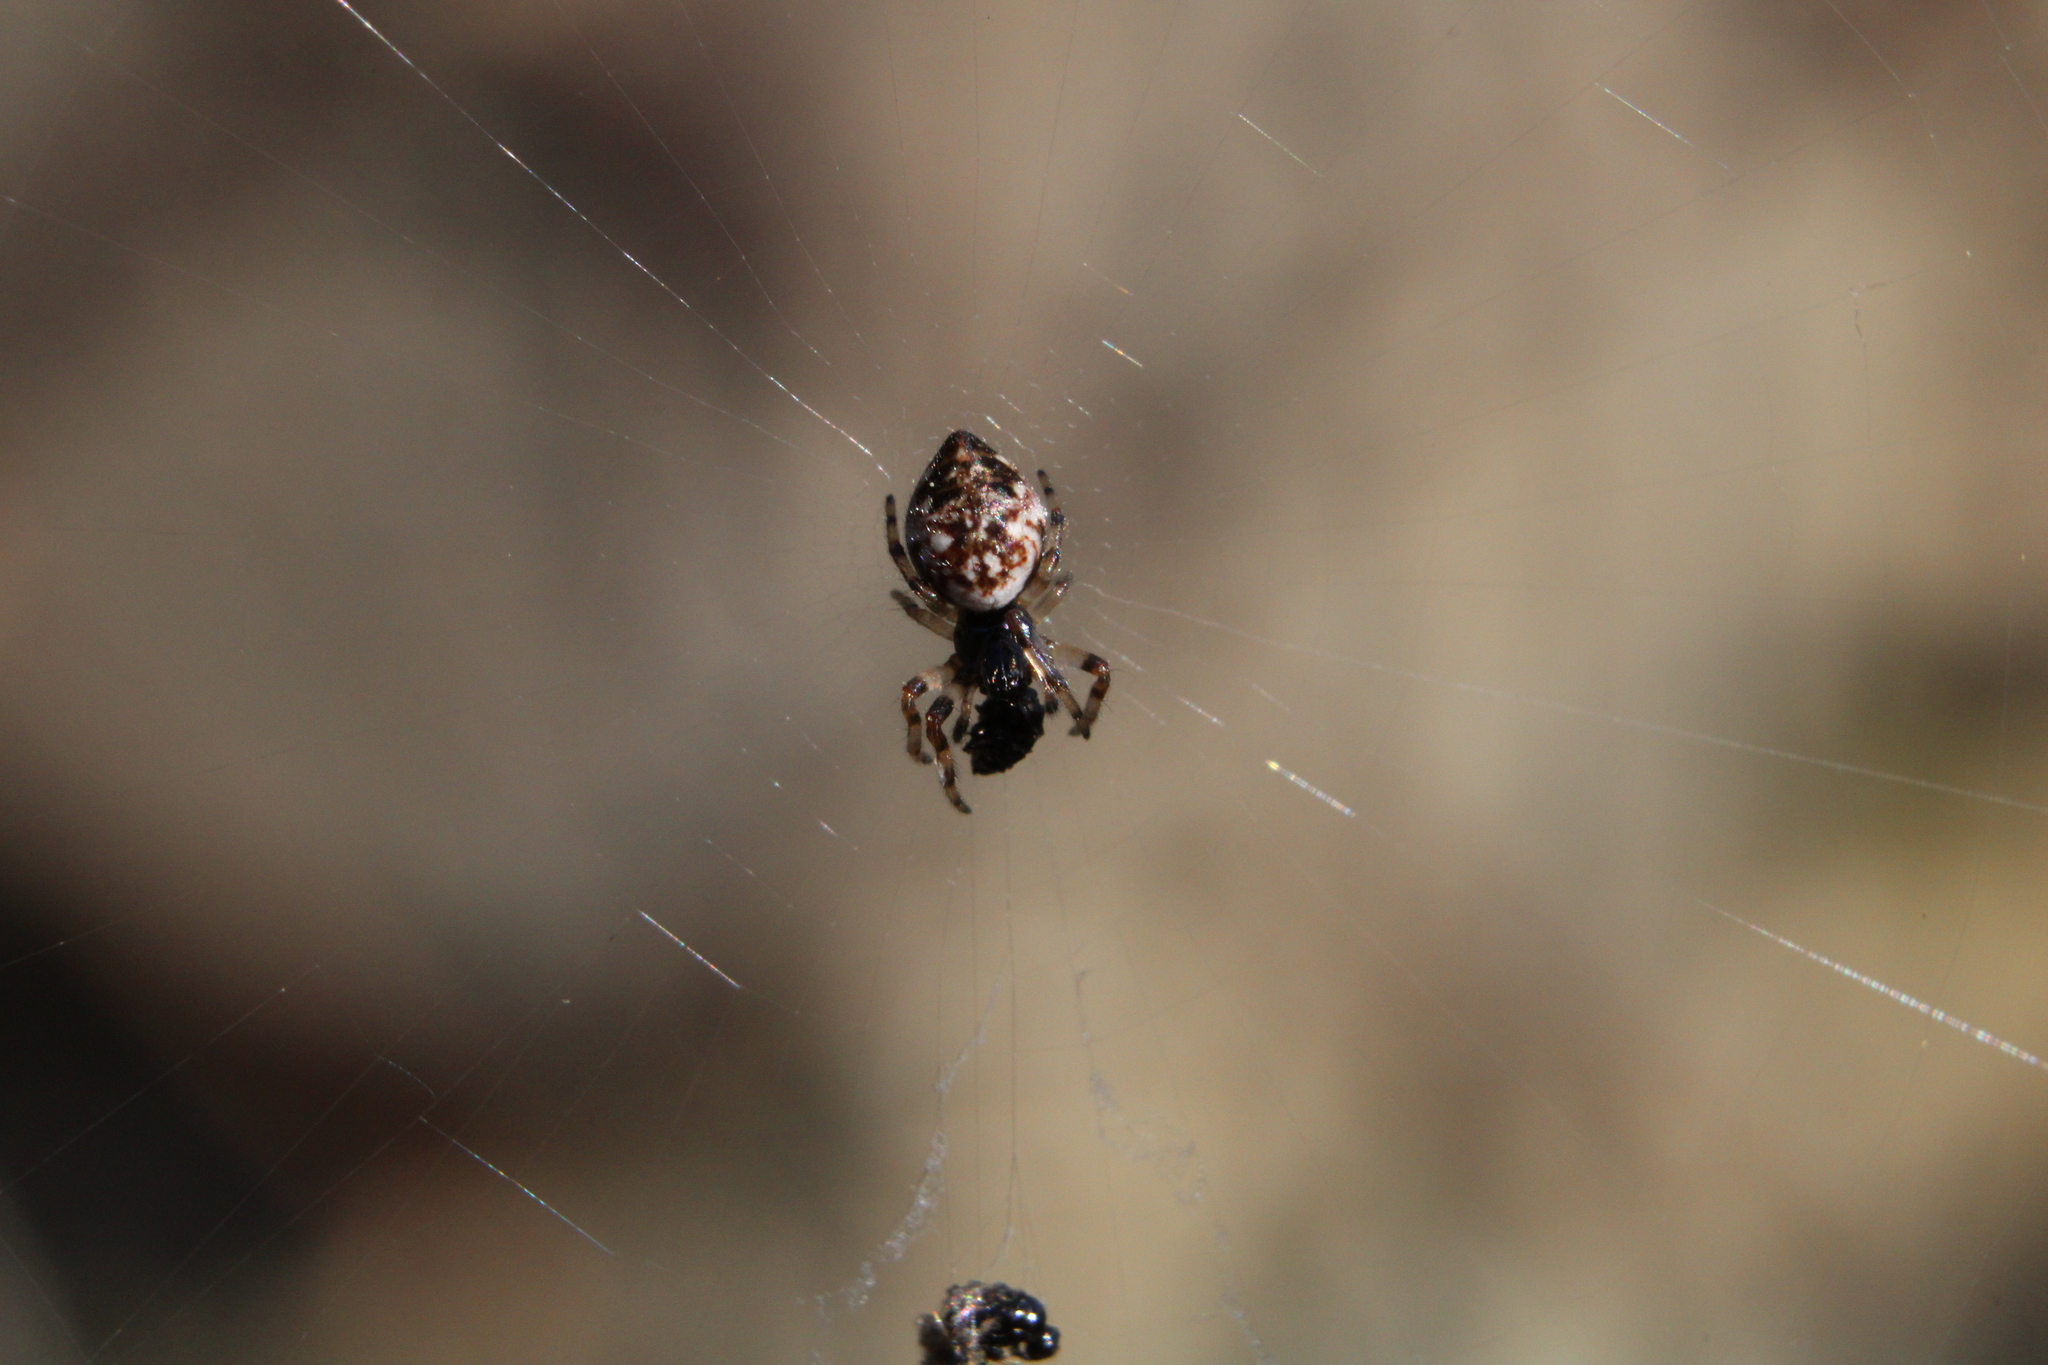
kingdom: Animalia
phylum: Arthropoda
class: Arachnida
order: Araneae
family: Araneidae
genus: Cyclosa
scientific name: Cyclosa turbinata
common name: Orb weavers
